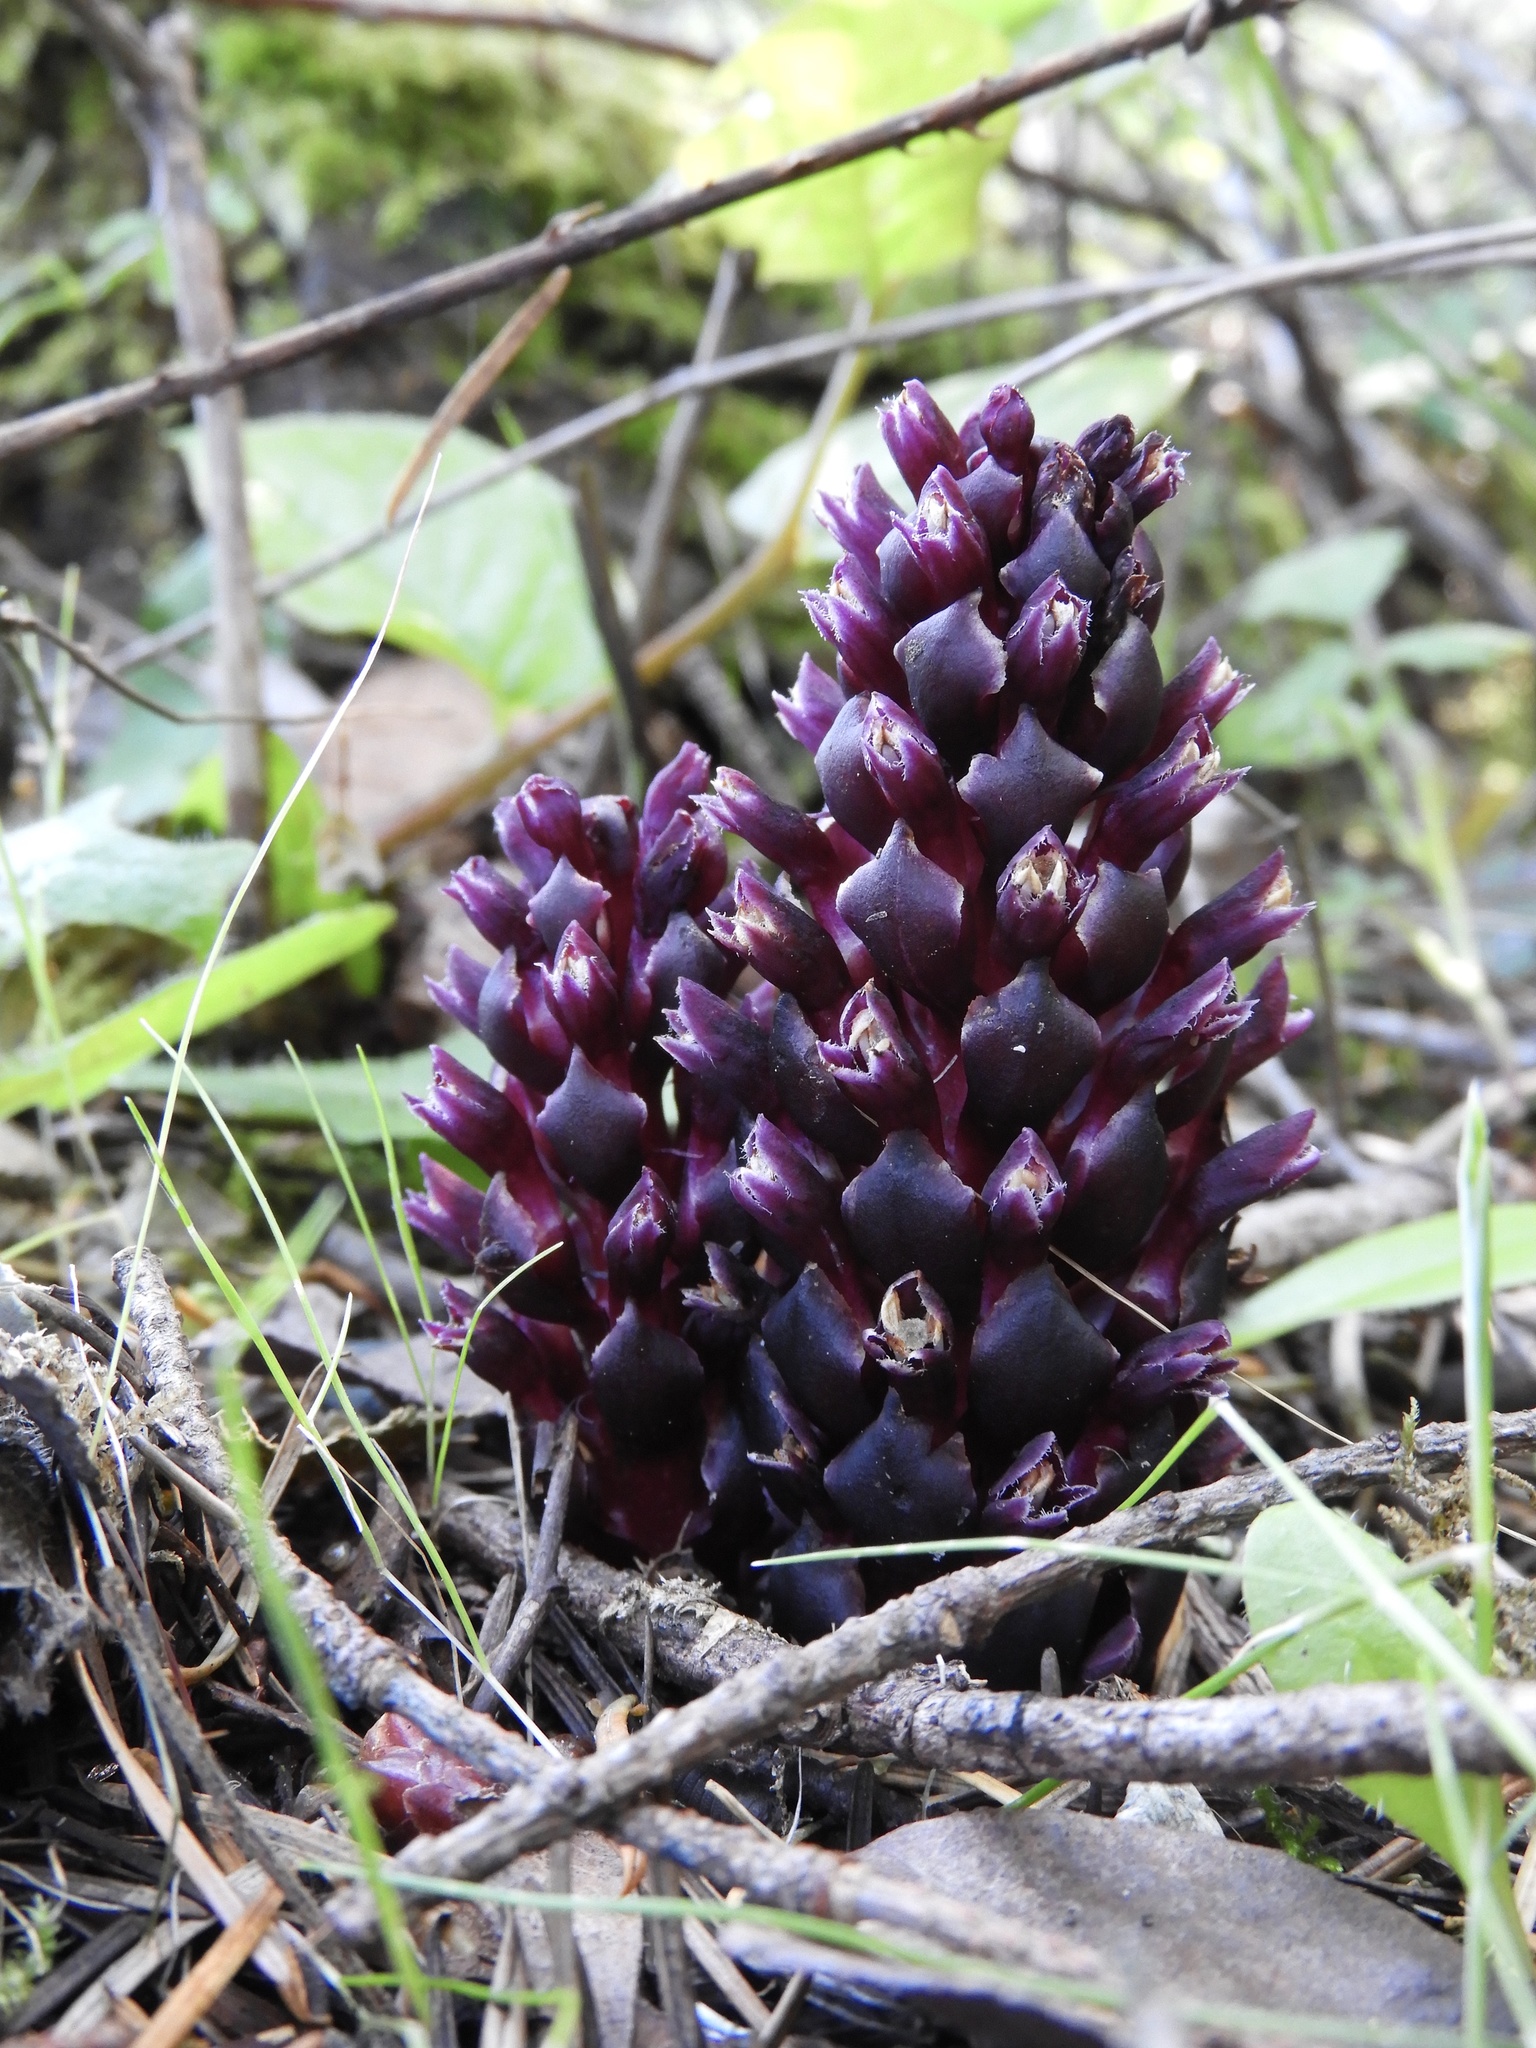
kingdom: Plantae
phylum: Tracheophyta
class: Magnoliopsida
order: Lamiales
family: Orobanchaceae
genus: Kopsiopsis
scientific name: Kopsiopsis hookeri
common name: Hooker's groundcone
